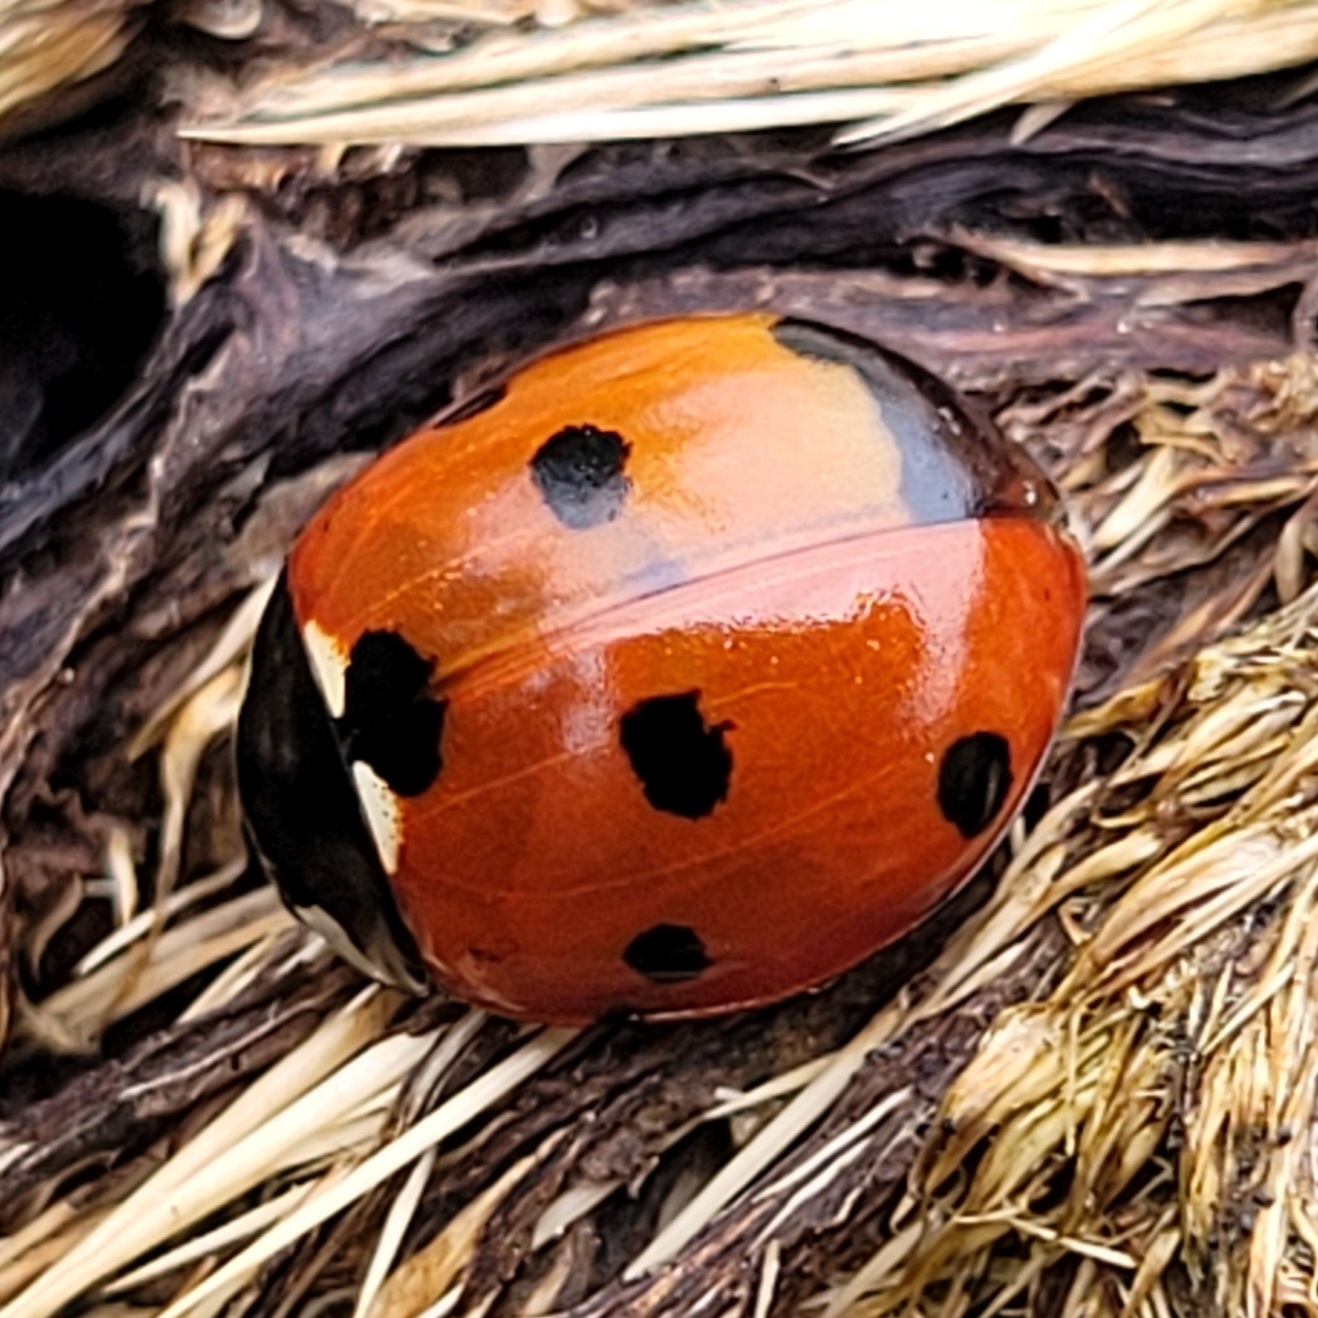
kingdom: Animalia
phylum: Arthropoda
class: Insecta
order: Coleoptera
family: Coccinellidae
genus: Coccinella
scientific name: Coccinella septempunctata
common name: Sevenspotted lady beetle
